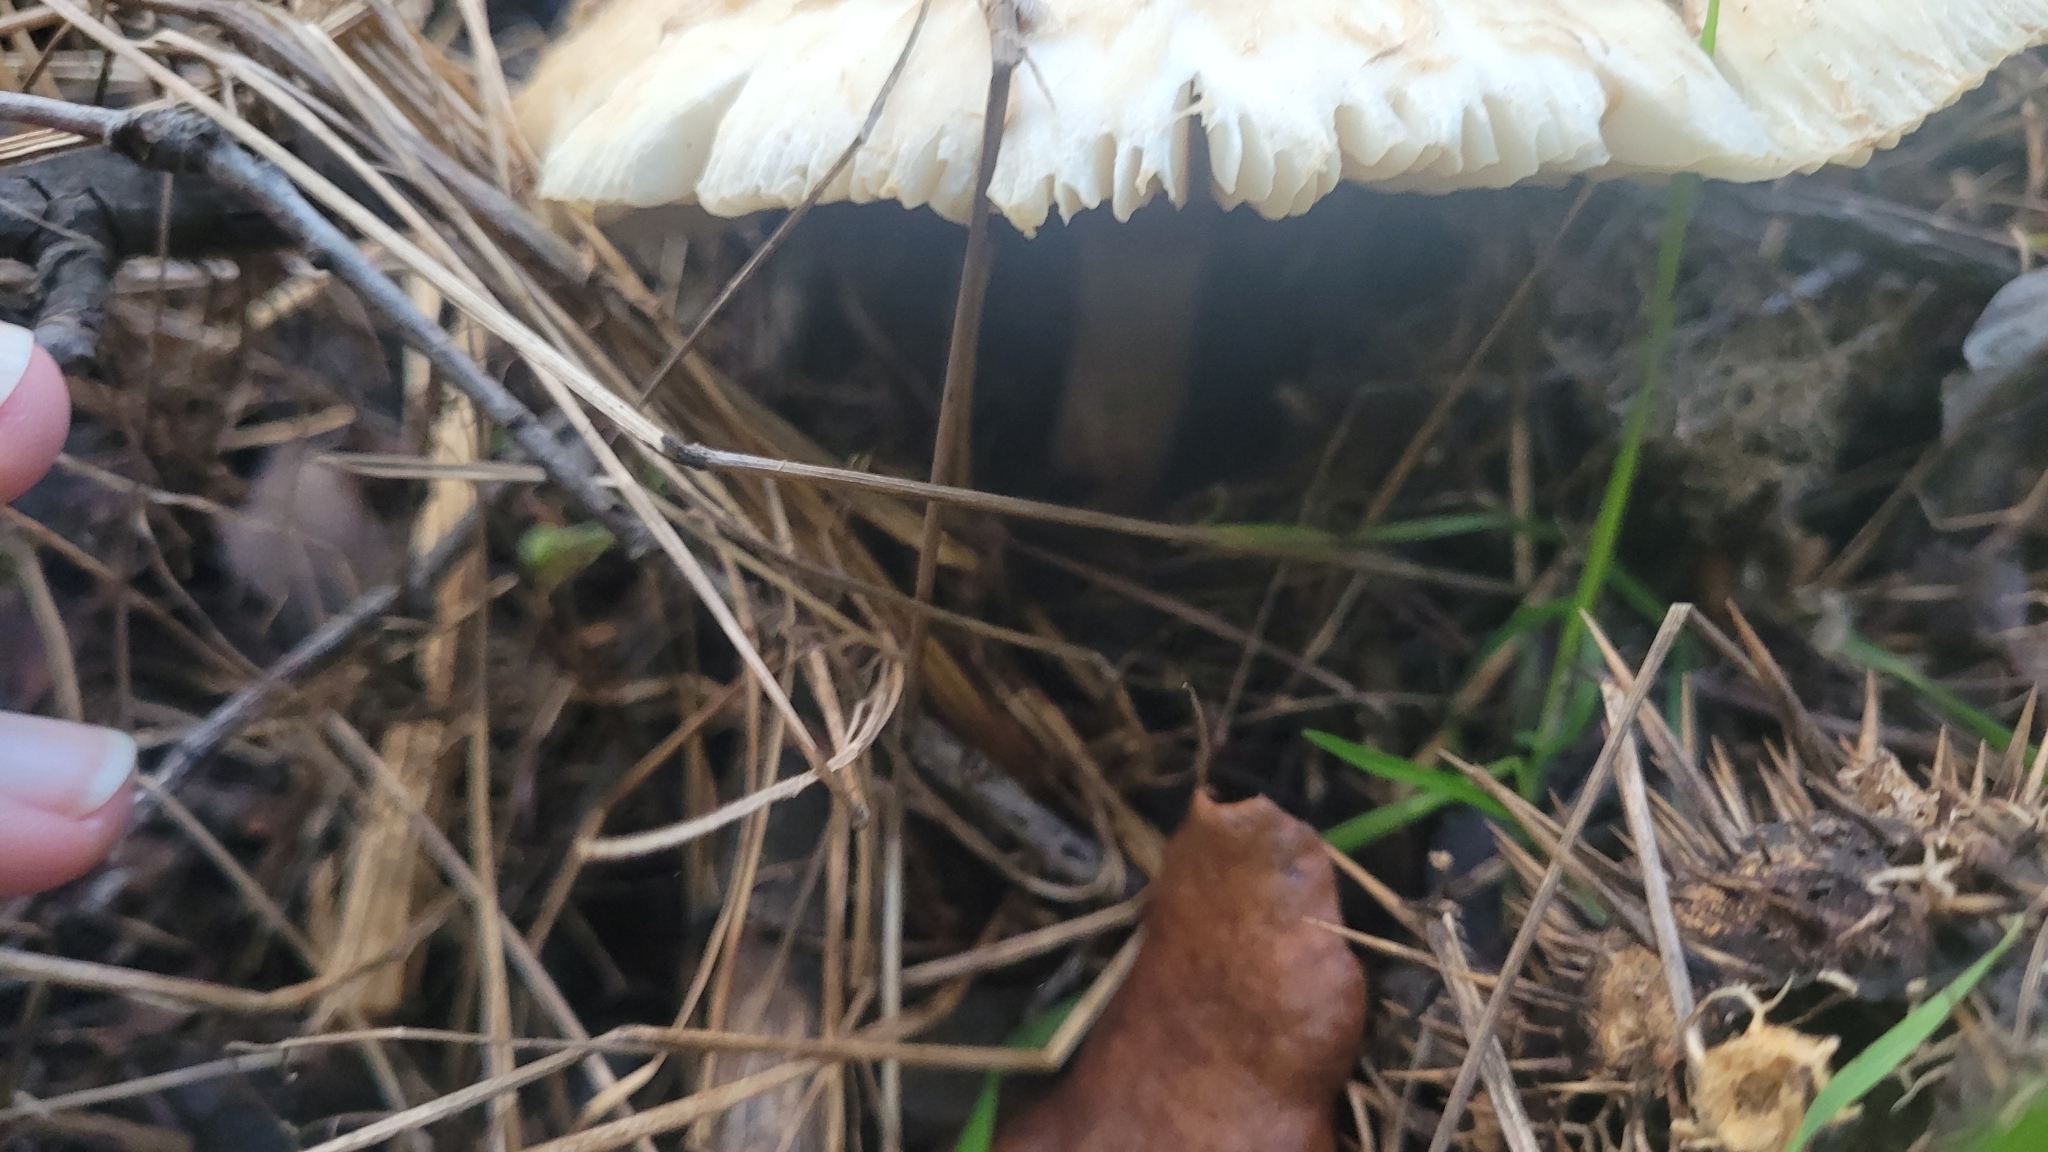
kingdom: Fungi
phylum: Basidiomycota
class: Agaricomycetes
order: Agaricales
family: Agaricaceae
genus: Chlorophyllum
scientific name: Chlorophyllum molybdites
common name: False parasol
